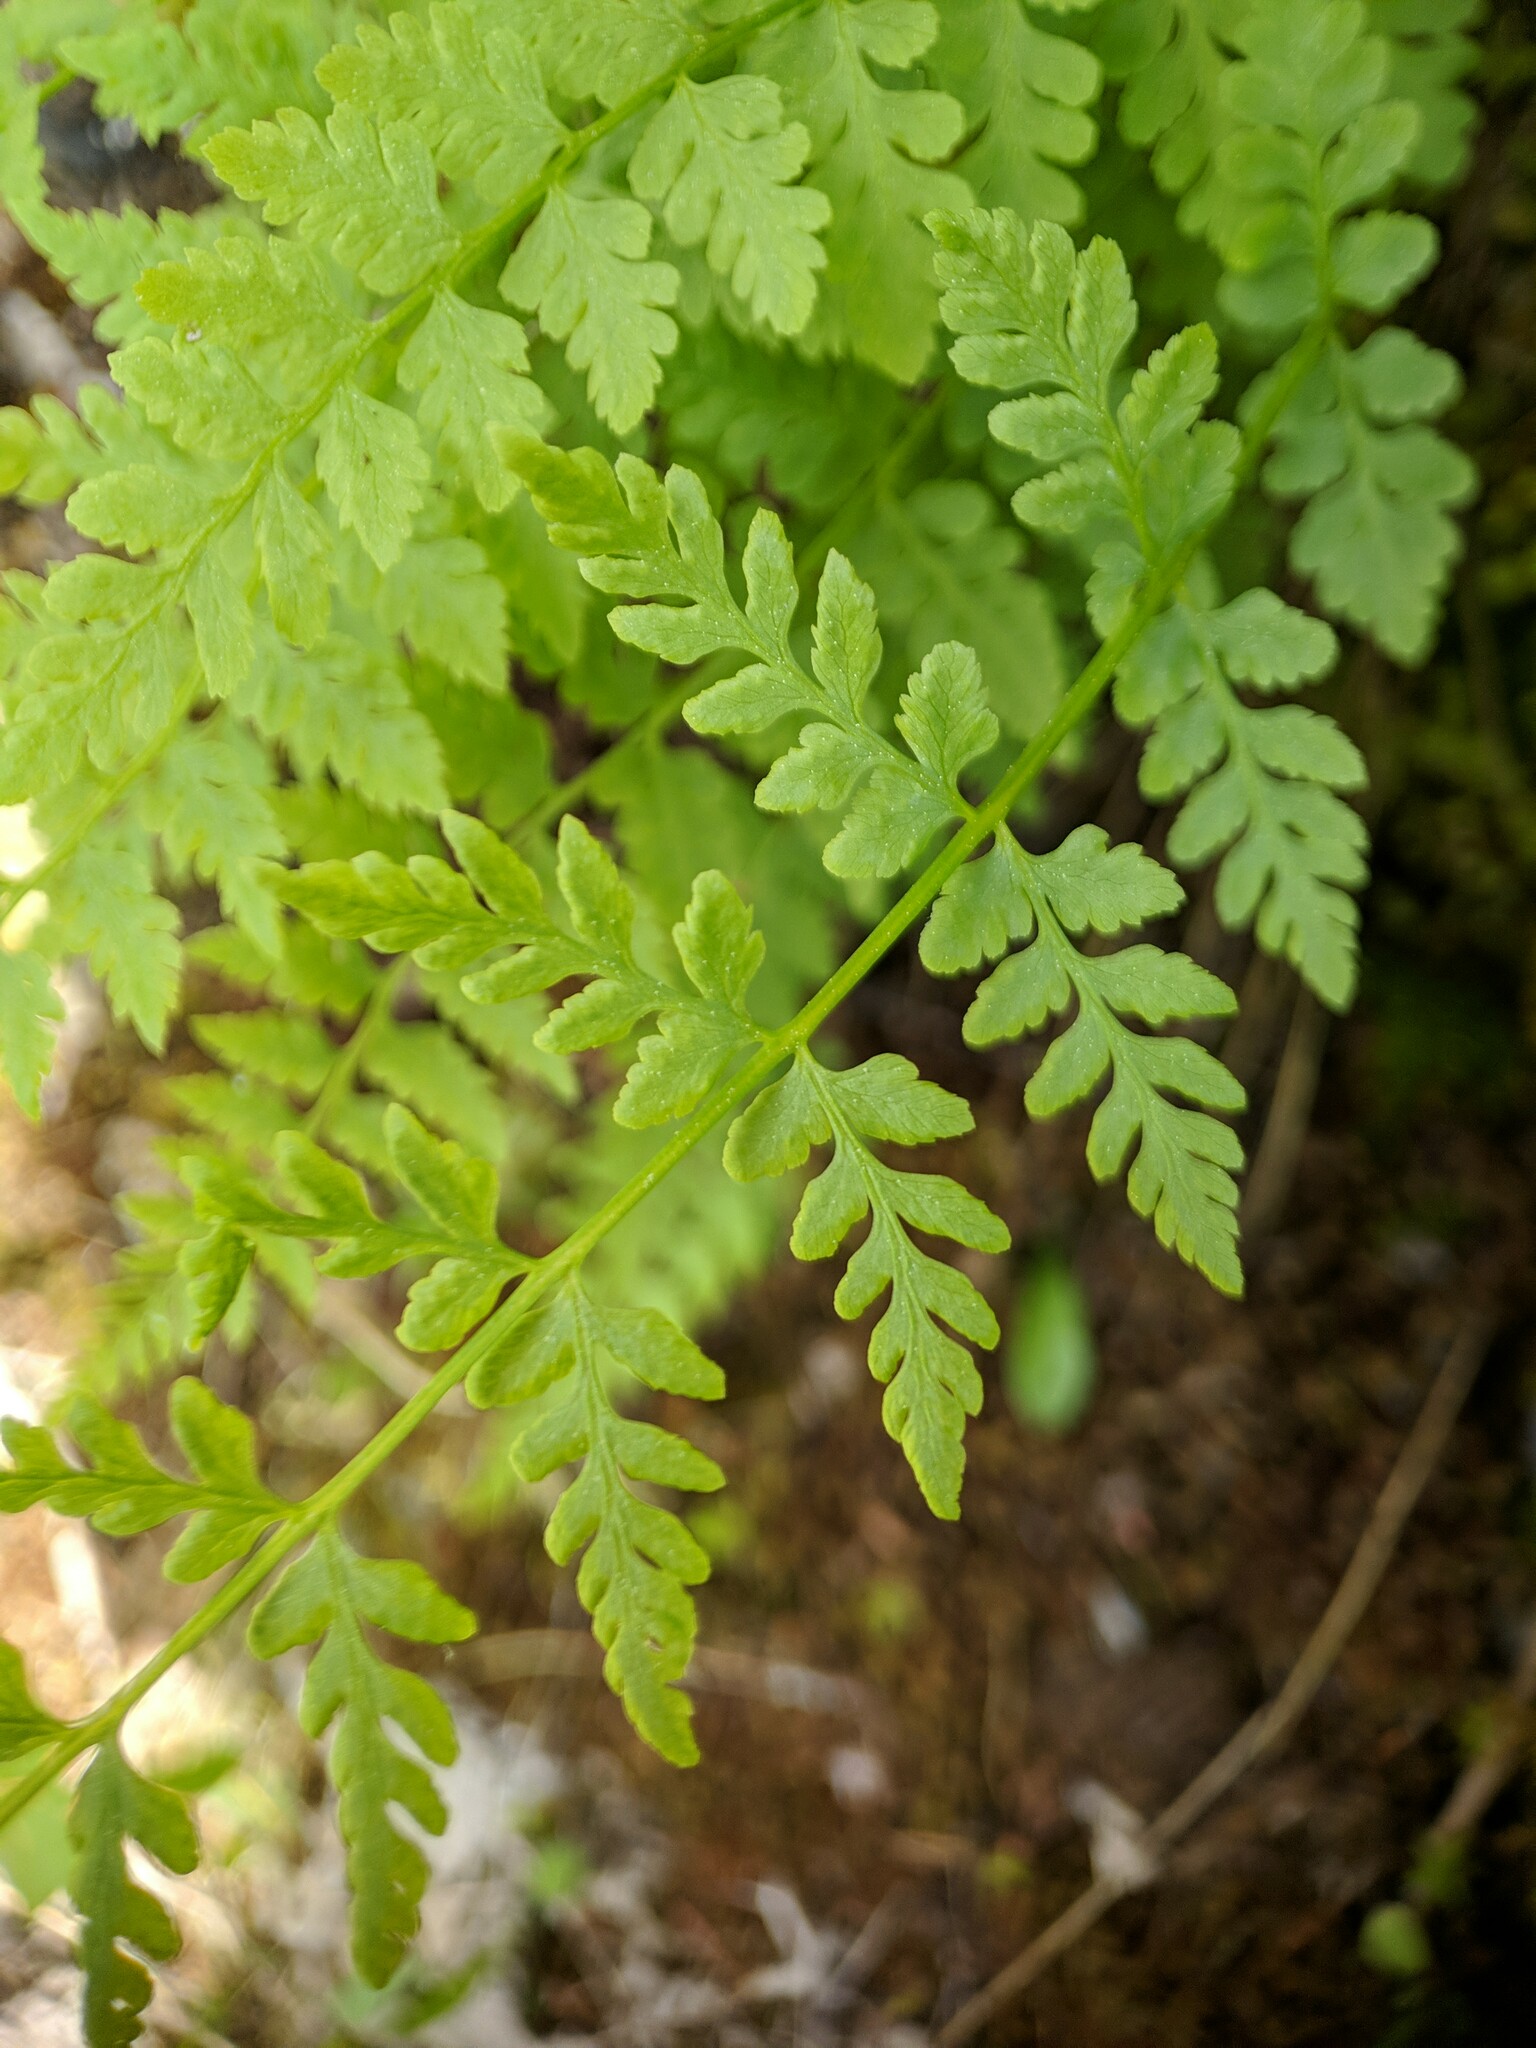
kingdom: Plantae
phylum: Tracheophyta
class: Polypodiopsida
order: Polypodiales
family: Cystopteridaceae
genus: Cystopteris
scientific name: Cystopteris fragilis
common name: Brittle bladder fern
